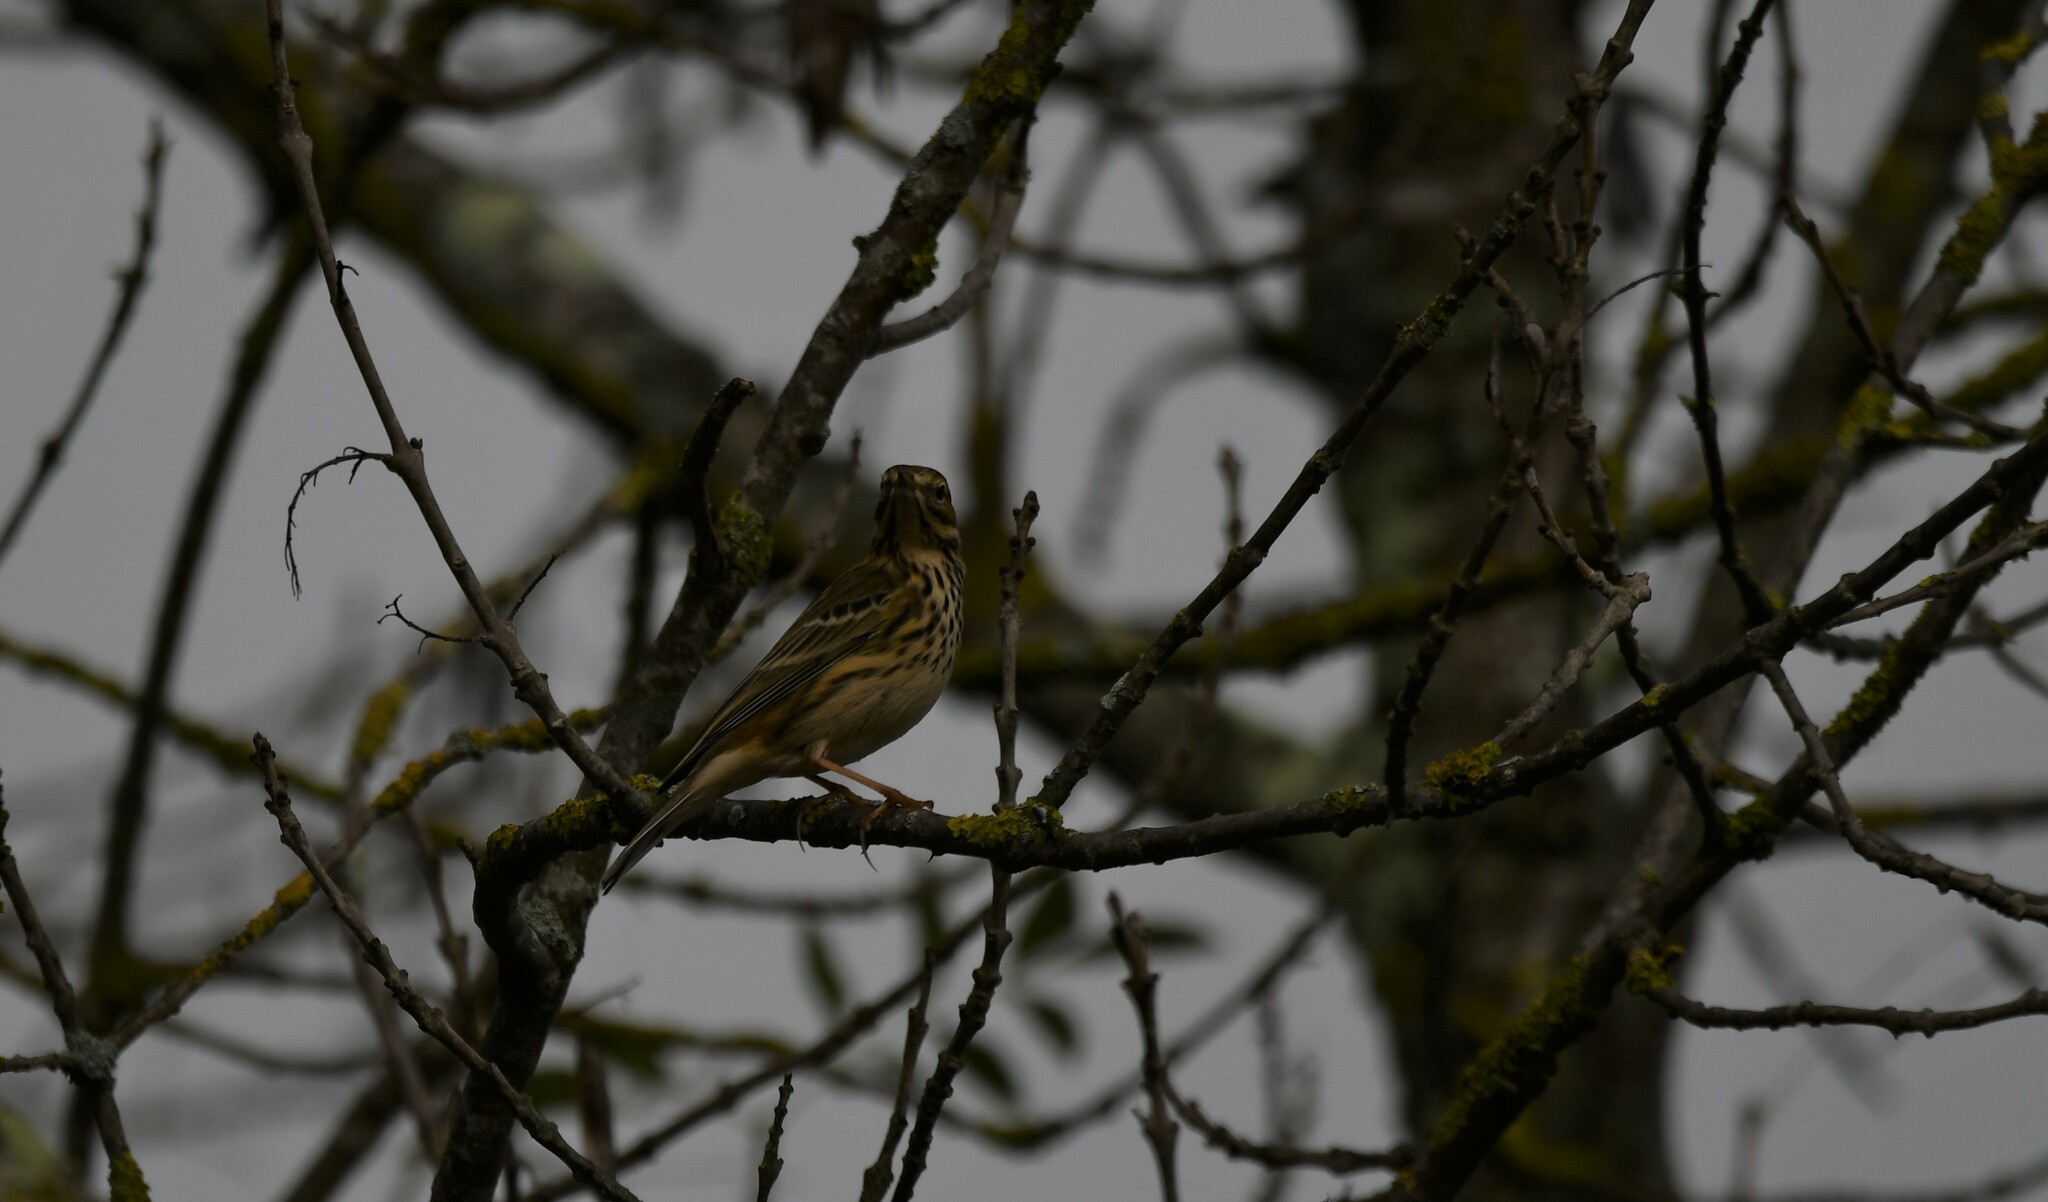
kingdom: Animalia
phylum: Chordata
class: Aves
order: Passeriformes
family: Motacillidae
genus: Anthus
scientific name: Anthus pratensis
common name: Meadow pipit
